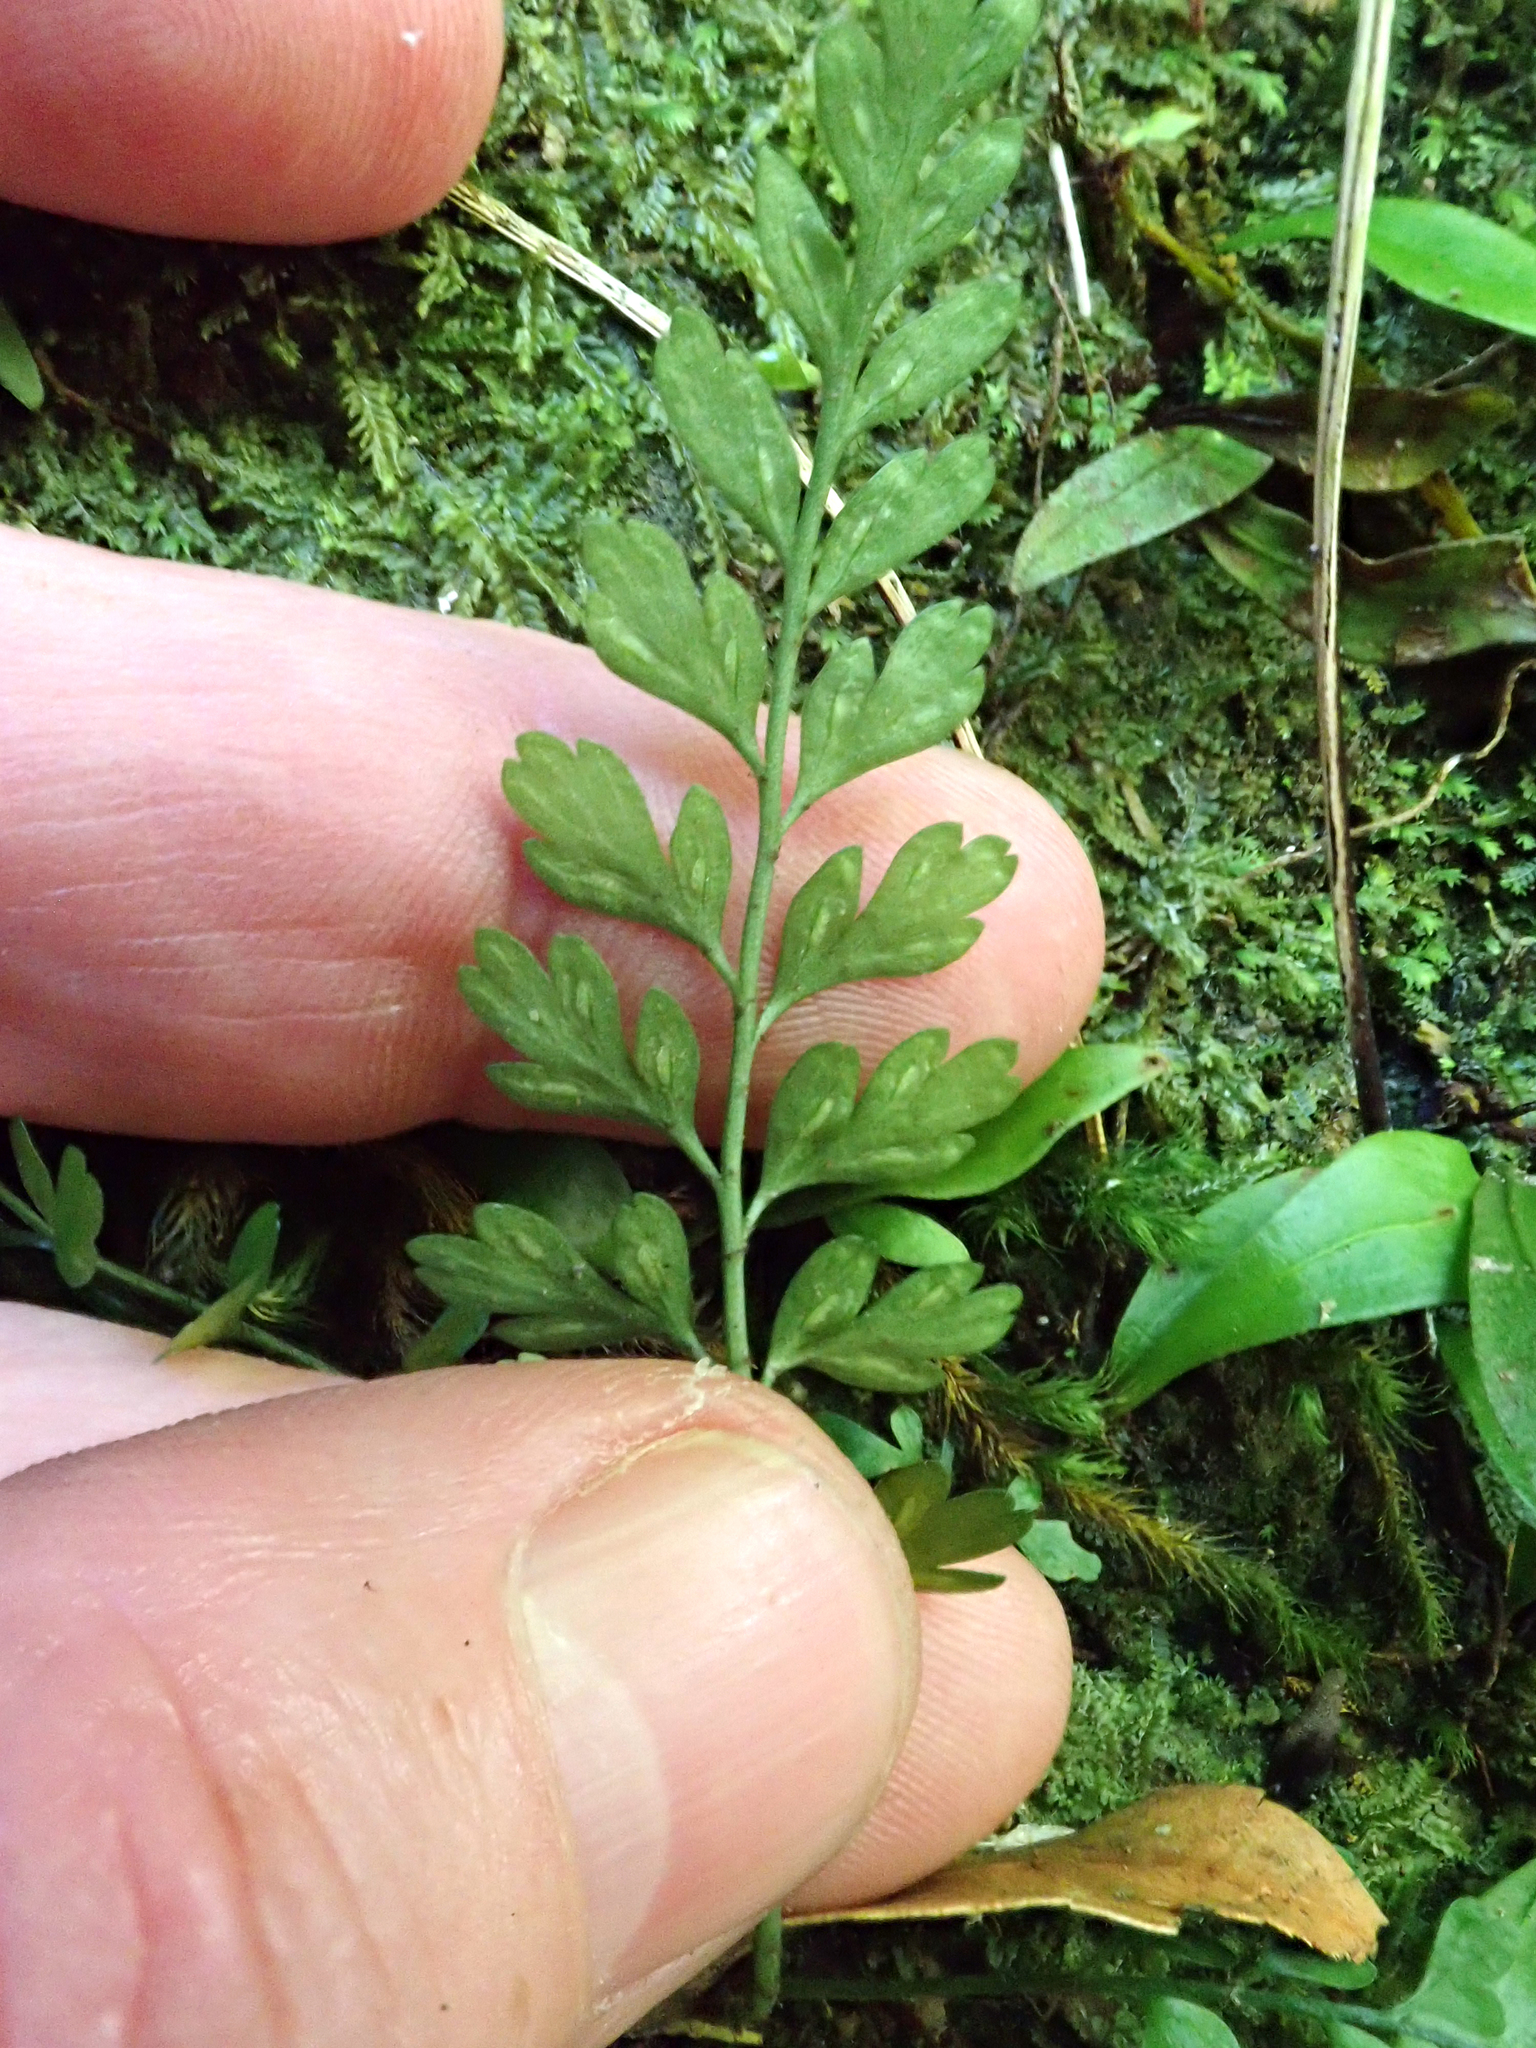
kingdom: Plantae
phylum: Tracheophyta
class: Polypodiopsida
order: Polypodiales
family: Aspleniaceae
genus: Asplenium
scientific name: Asplenium cimmeriorum
